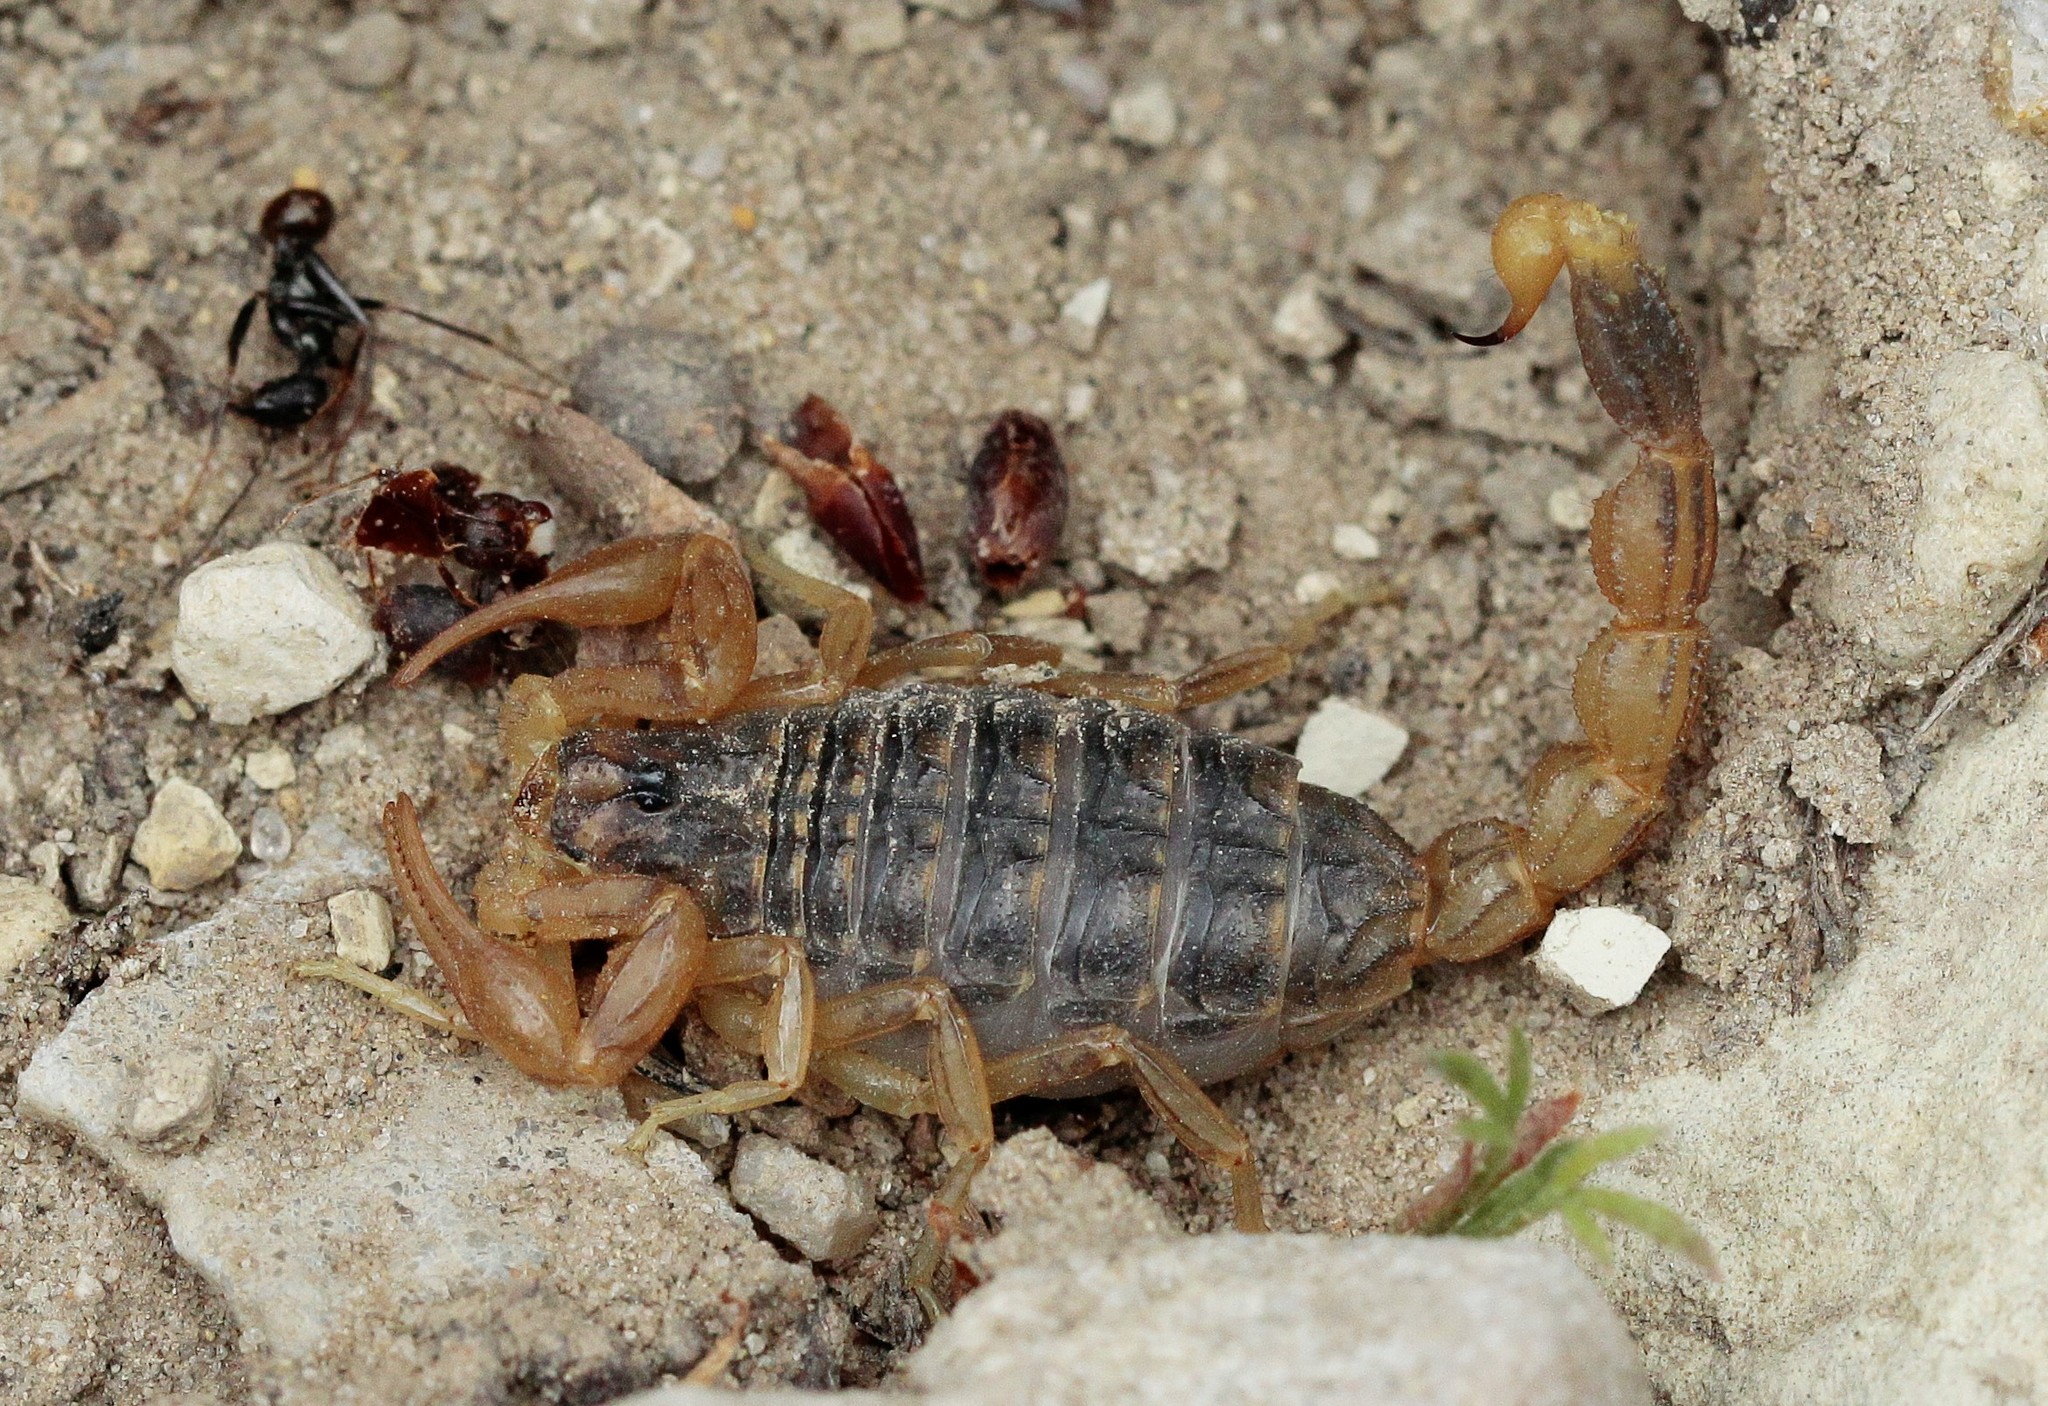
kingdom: Animalia
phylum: Arthropoda
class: Arachnida
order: Scorpiones
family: Buthidae
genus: Mesobuthus
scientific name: Mesobuthus bogdoensis
